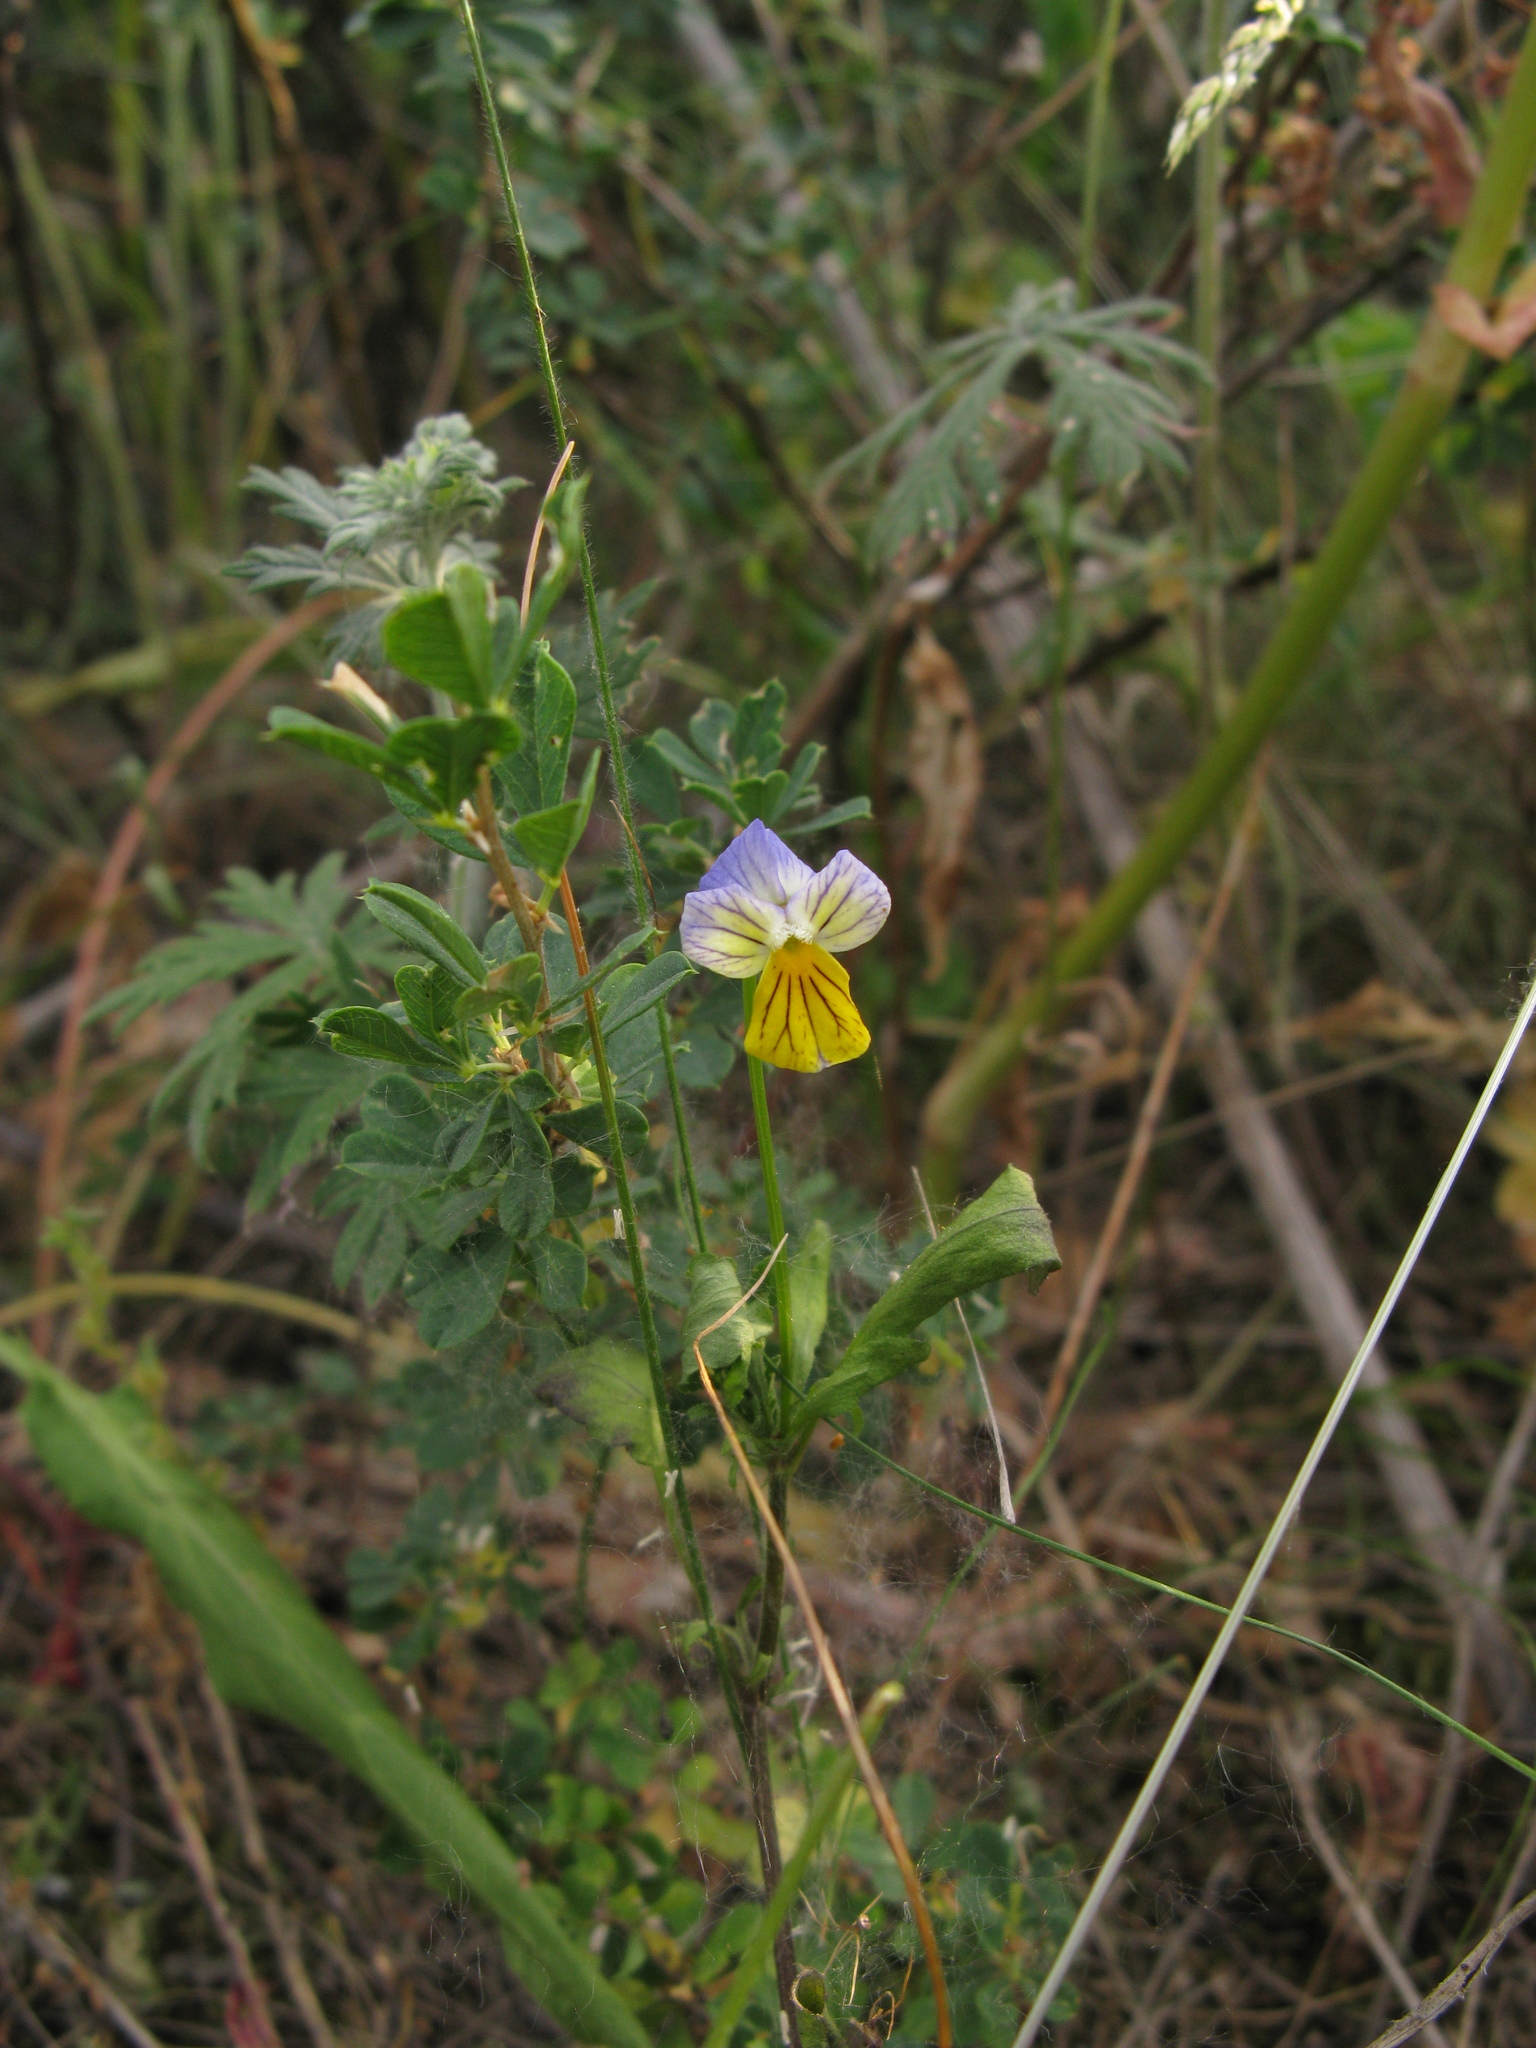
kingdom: Plantae
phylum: Tracheophyta
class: Magnoliopsida
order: Malpighiales
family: Violaceae
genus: Viola
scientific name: Viola tricolor
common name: Pansy
